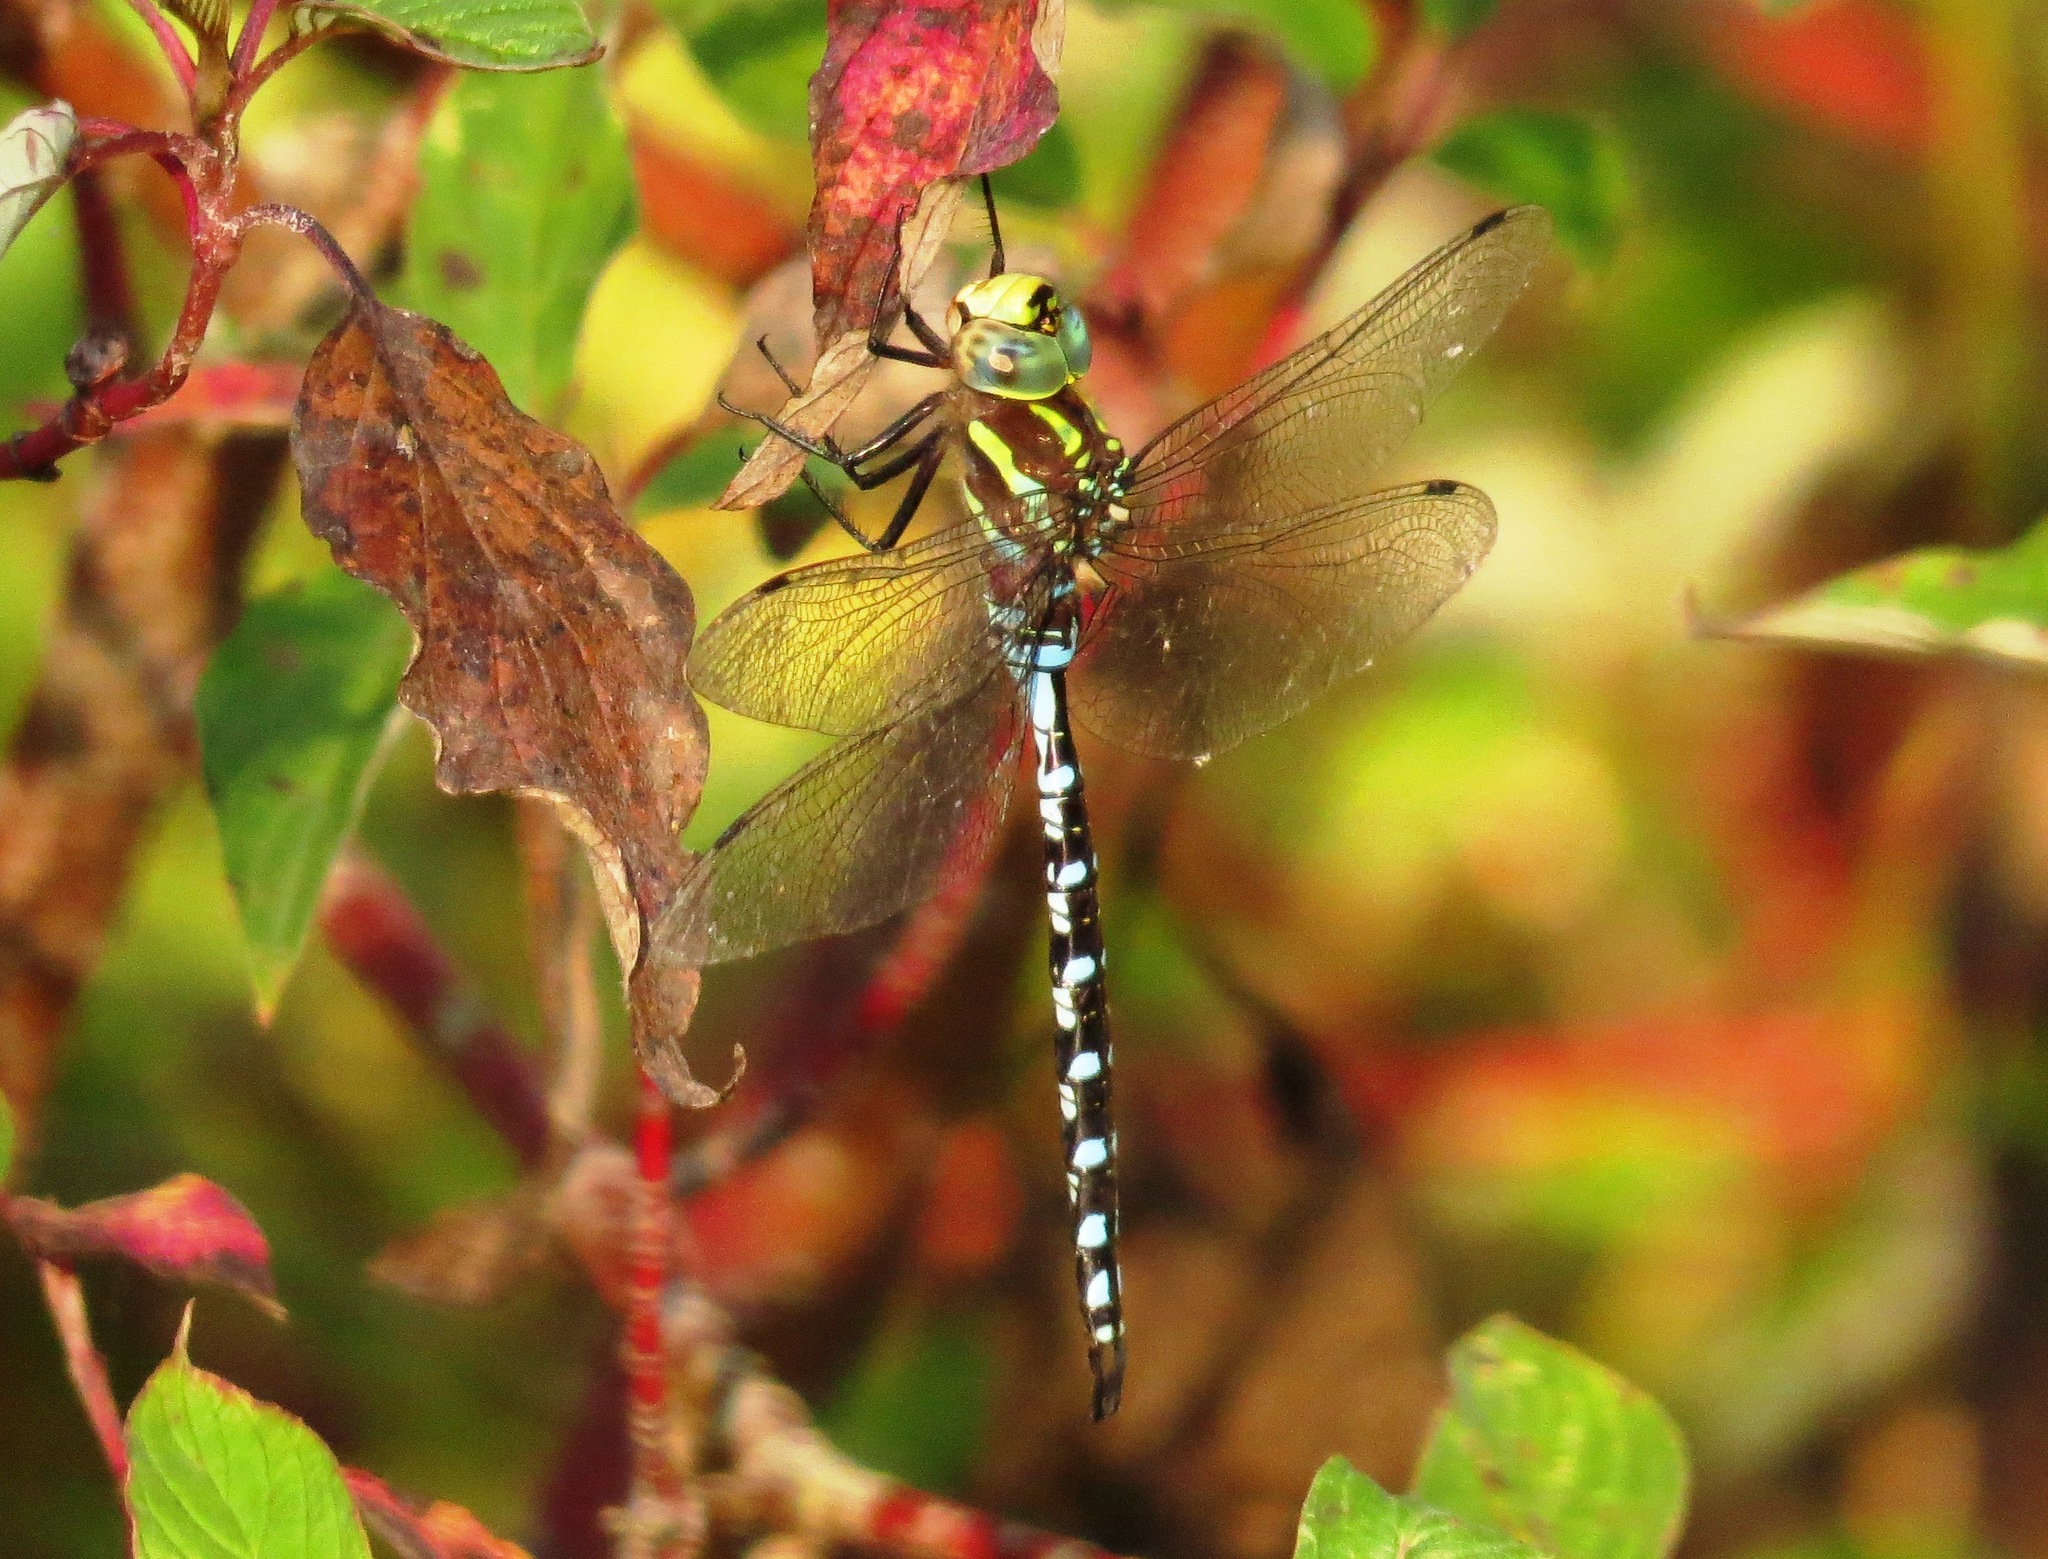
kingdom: Animalia
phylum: Arthropoda
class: Insecta
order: Odonata
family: Aeshnidae
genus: Aeshna
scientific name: Aeshna constricta
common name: Lance-tipped darner
